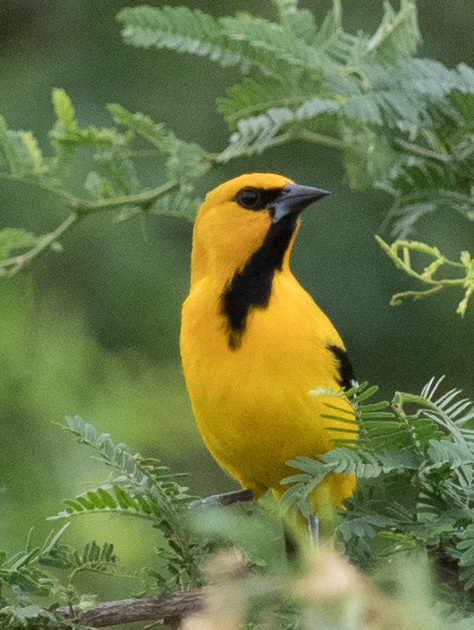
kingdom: Animalia
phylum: Chordata
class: Aves
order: Passeriformes
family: Icteridae
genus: Icterus
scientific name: Icterus nigrogularis
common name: Yellow oriole
